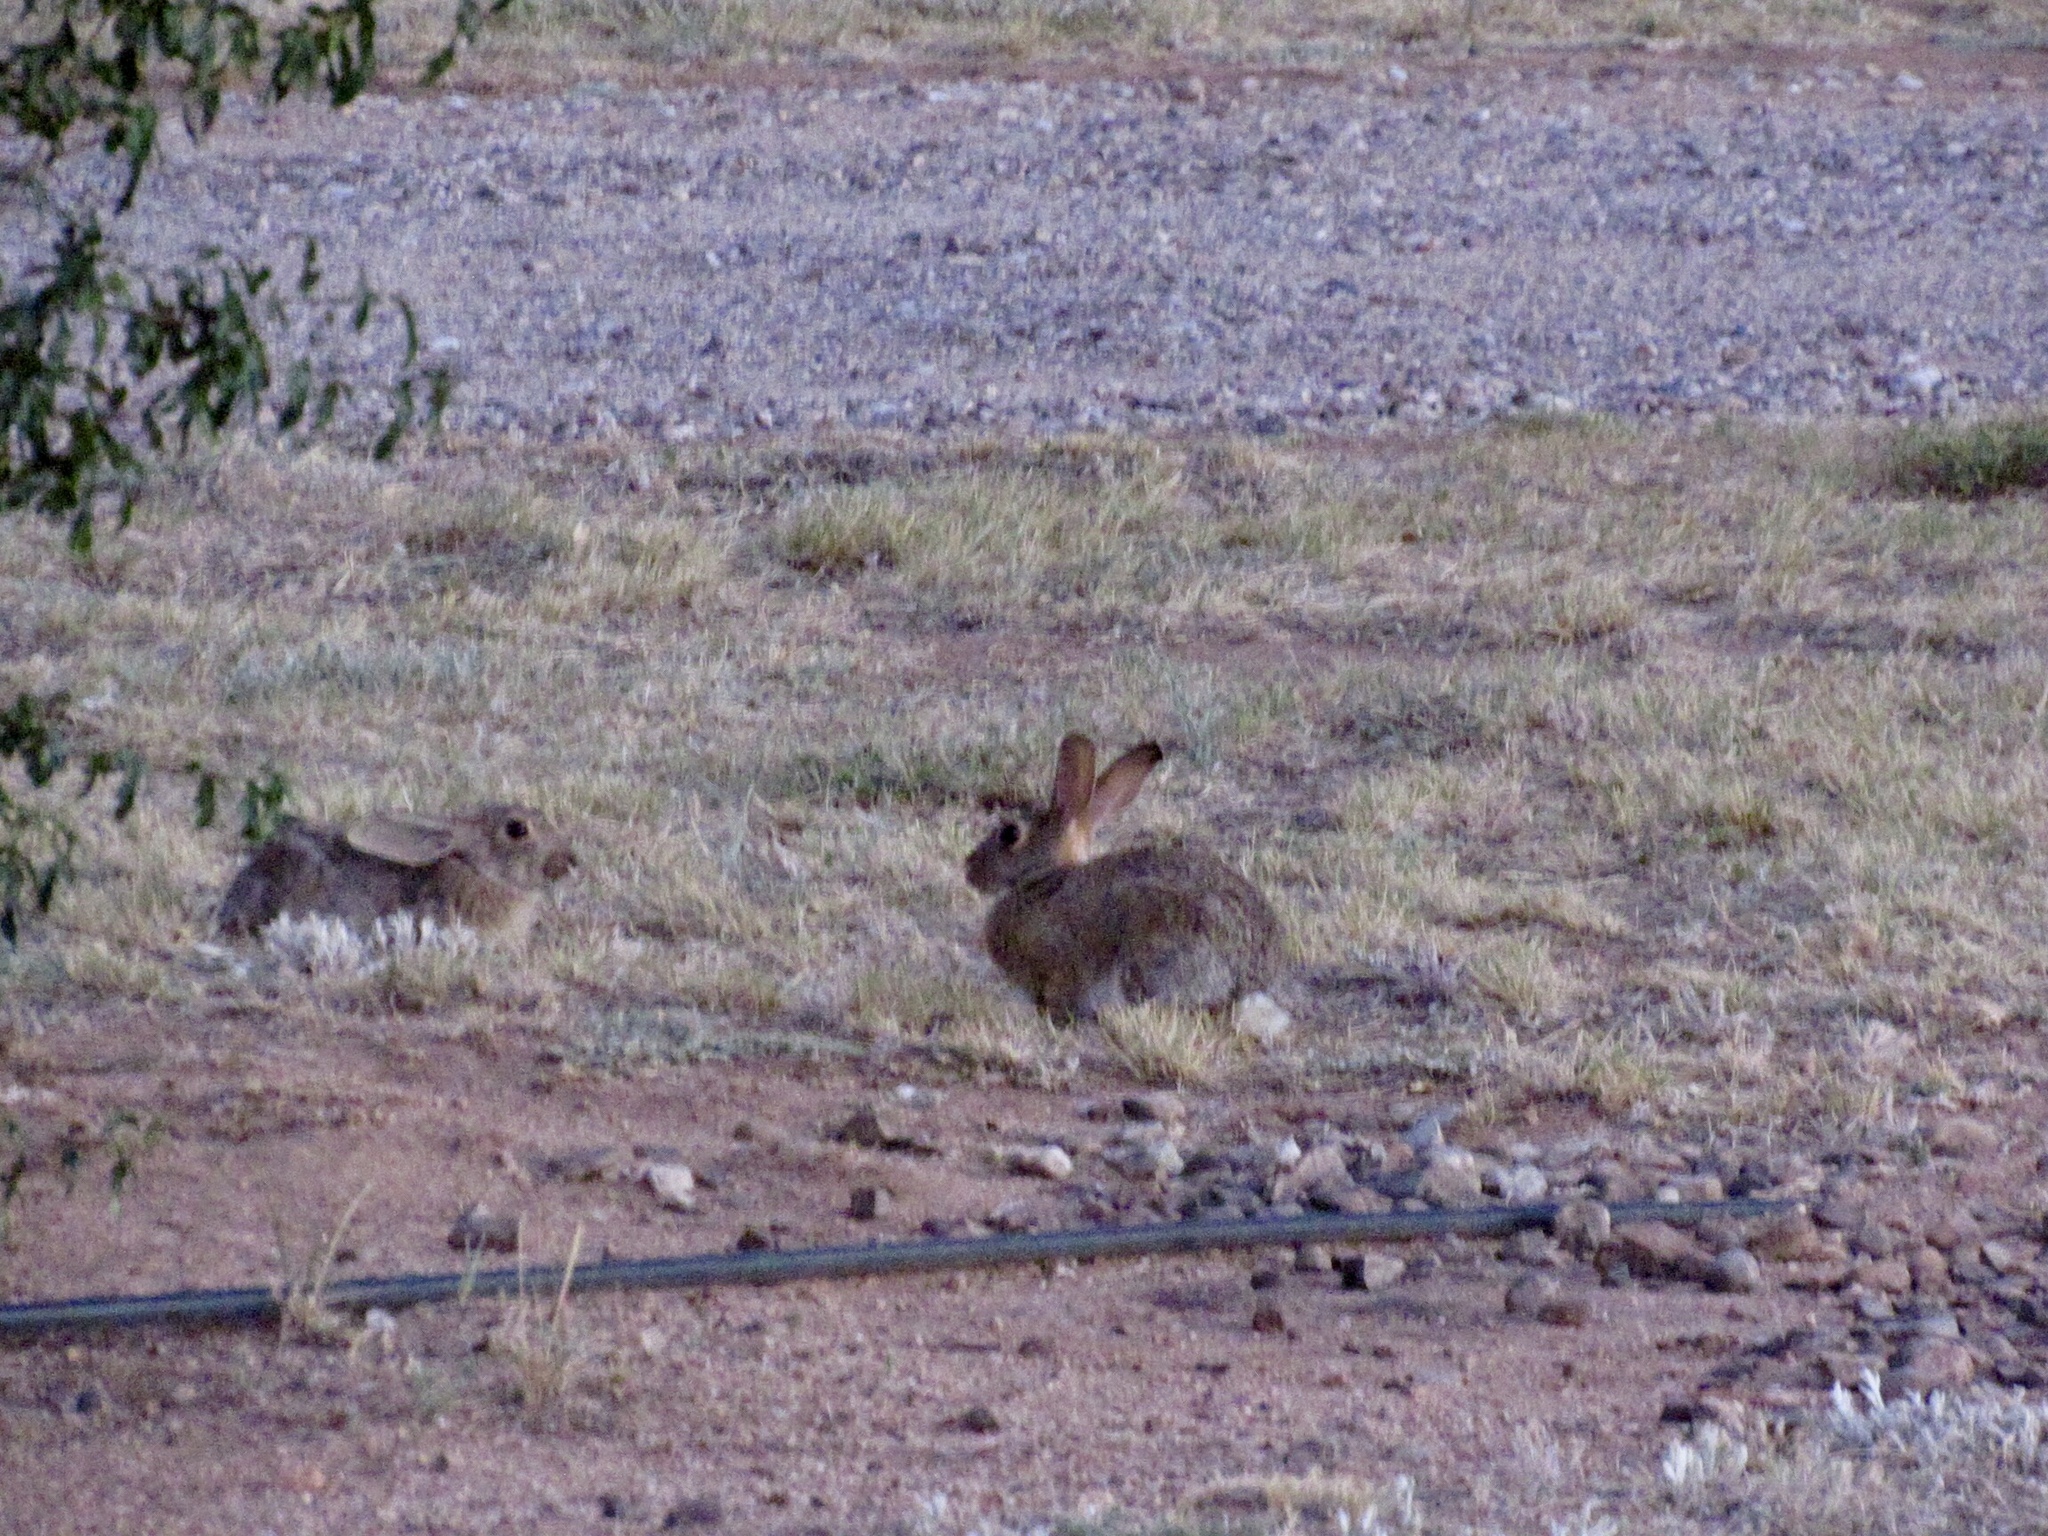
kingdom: Animalia
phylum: Chordata
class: Mammalia
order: Lagomorpha
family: Leporidae
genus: Sylvilagus
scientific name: Sylvilagus audubonii
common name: Desert cottontail
